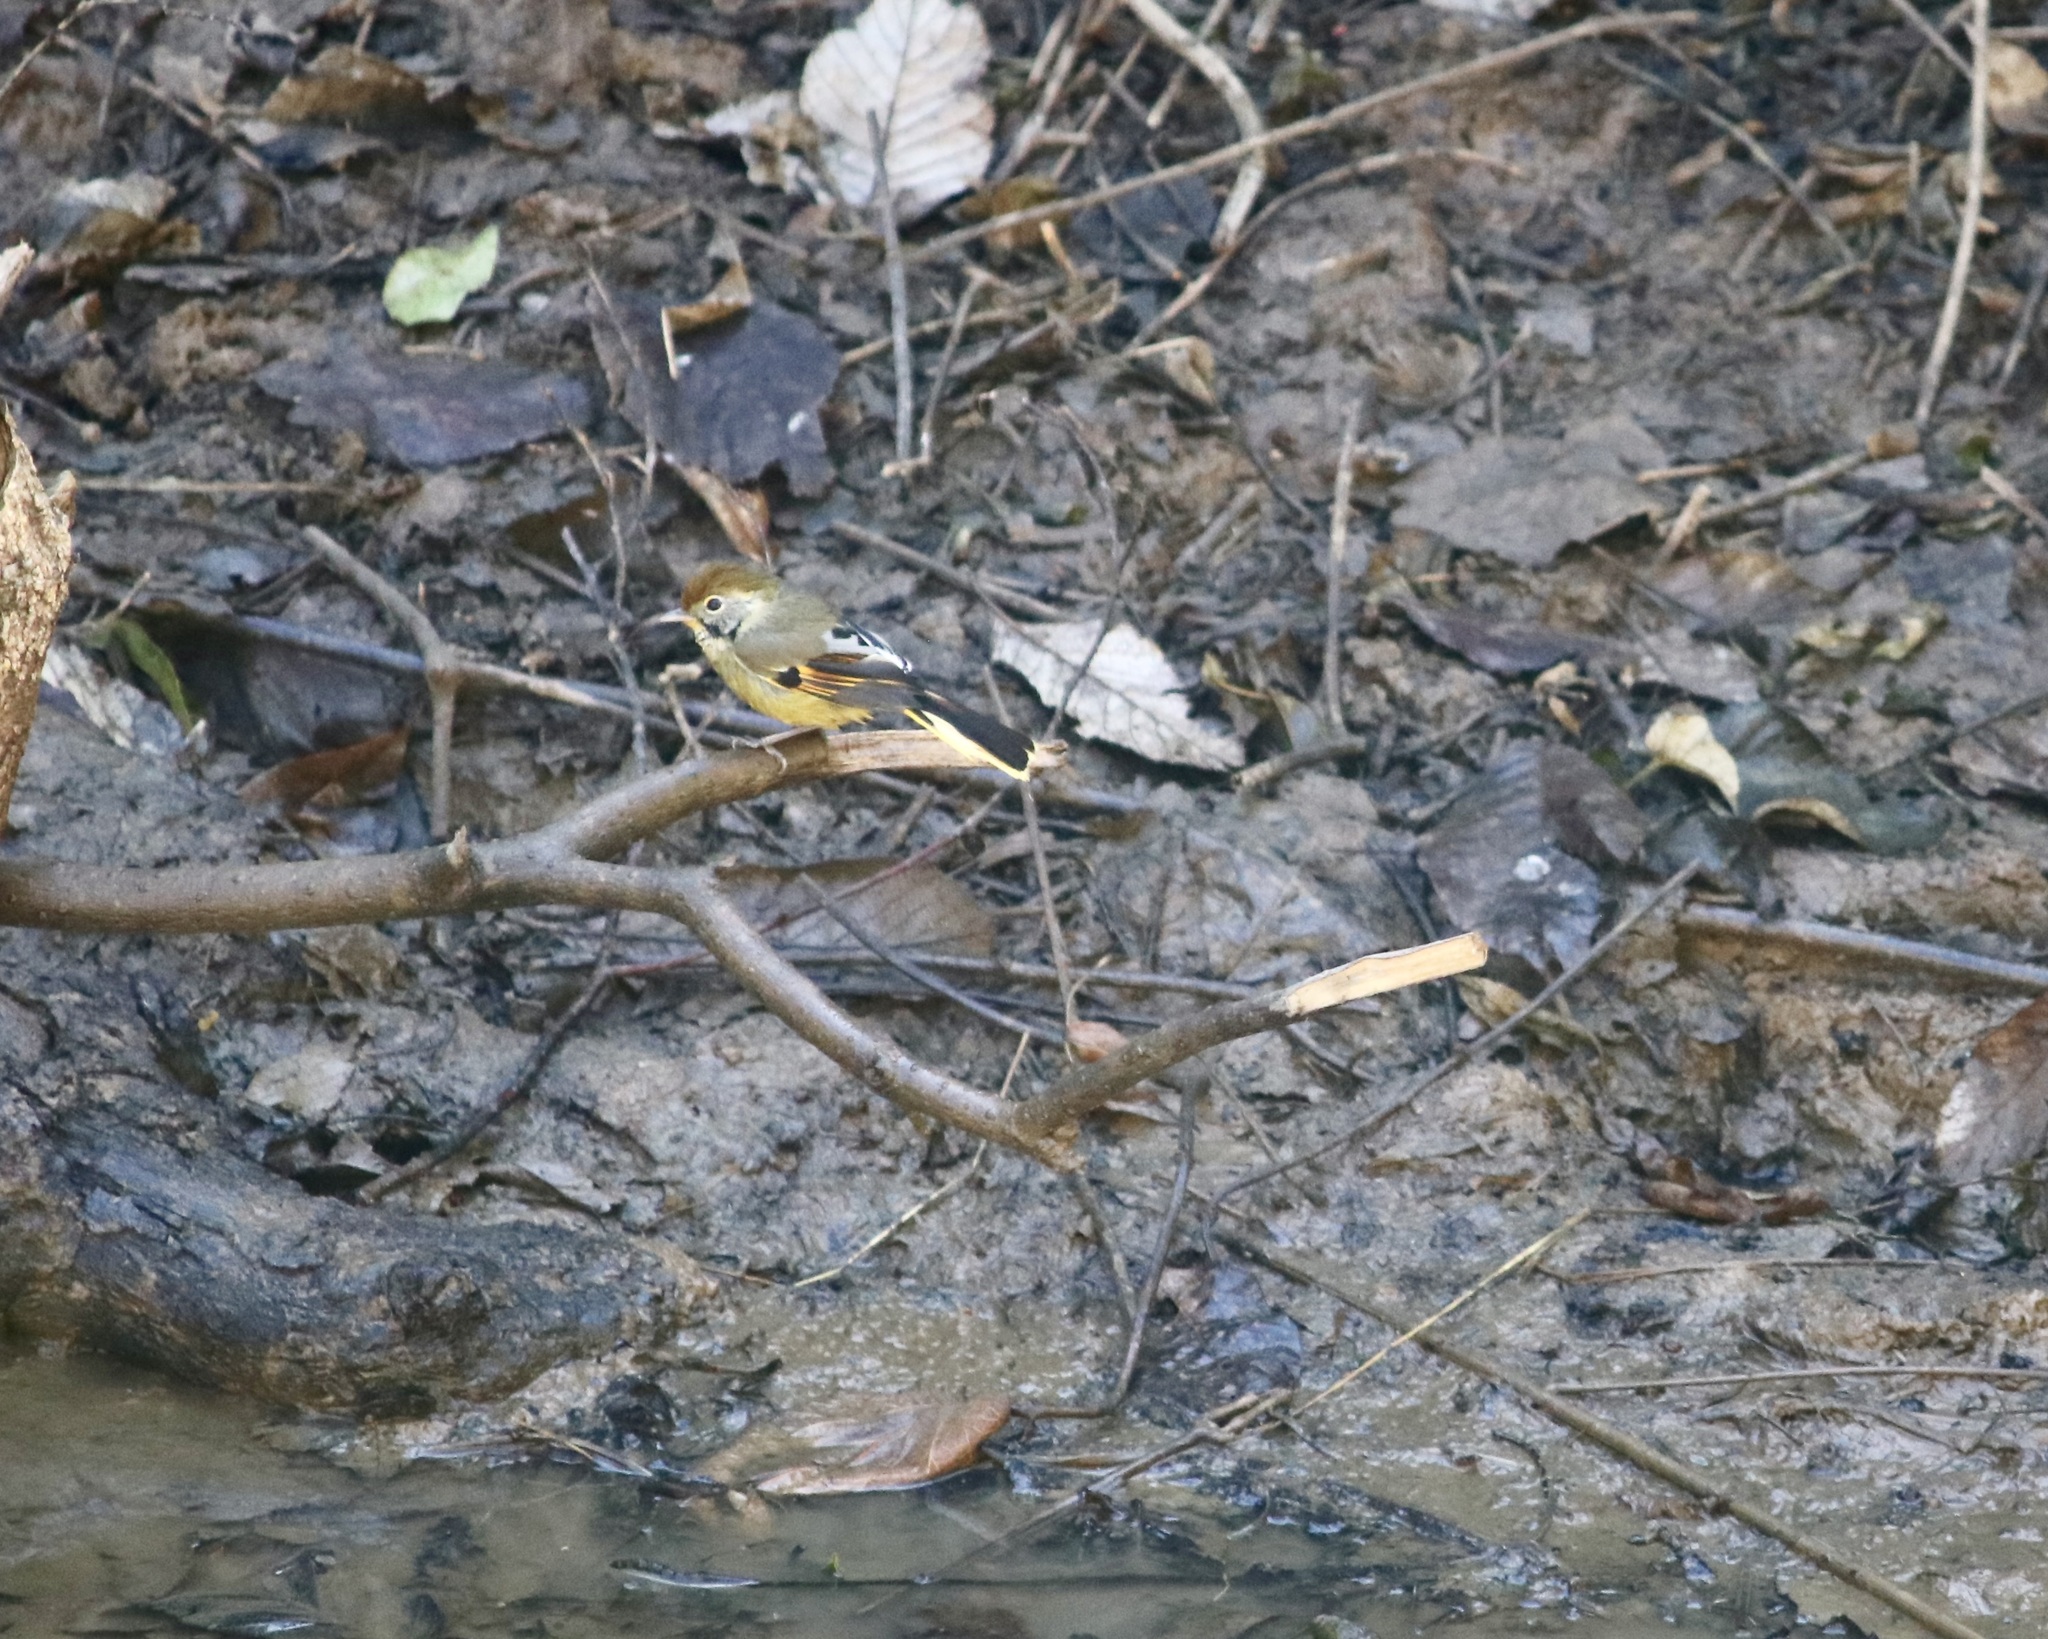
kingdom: Animalia
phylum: Chordata
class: Aves
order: Passeriformes
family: Leiothrichidae
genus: Minla
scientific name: Minla strigula
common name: Chestnut-tailed minla
